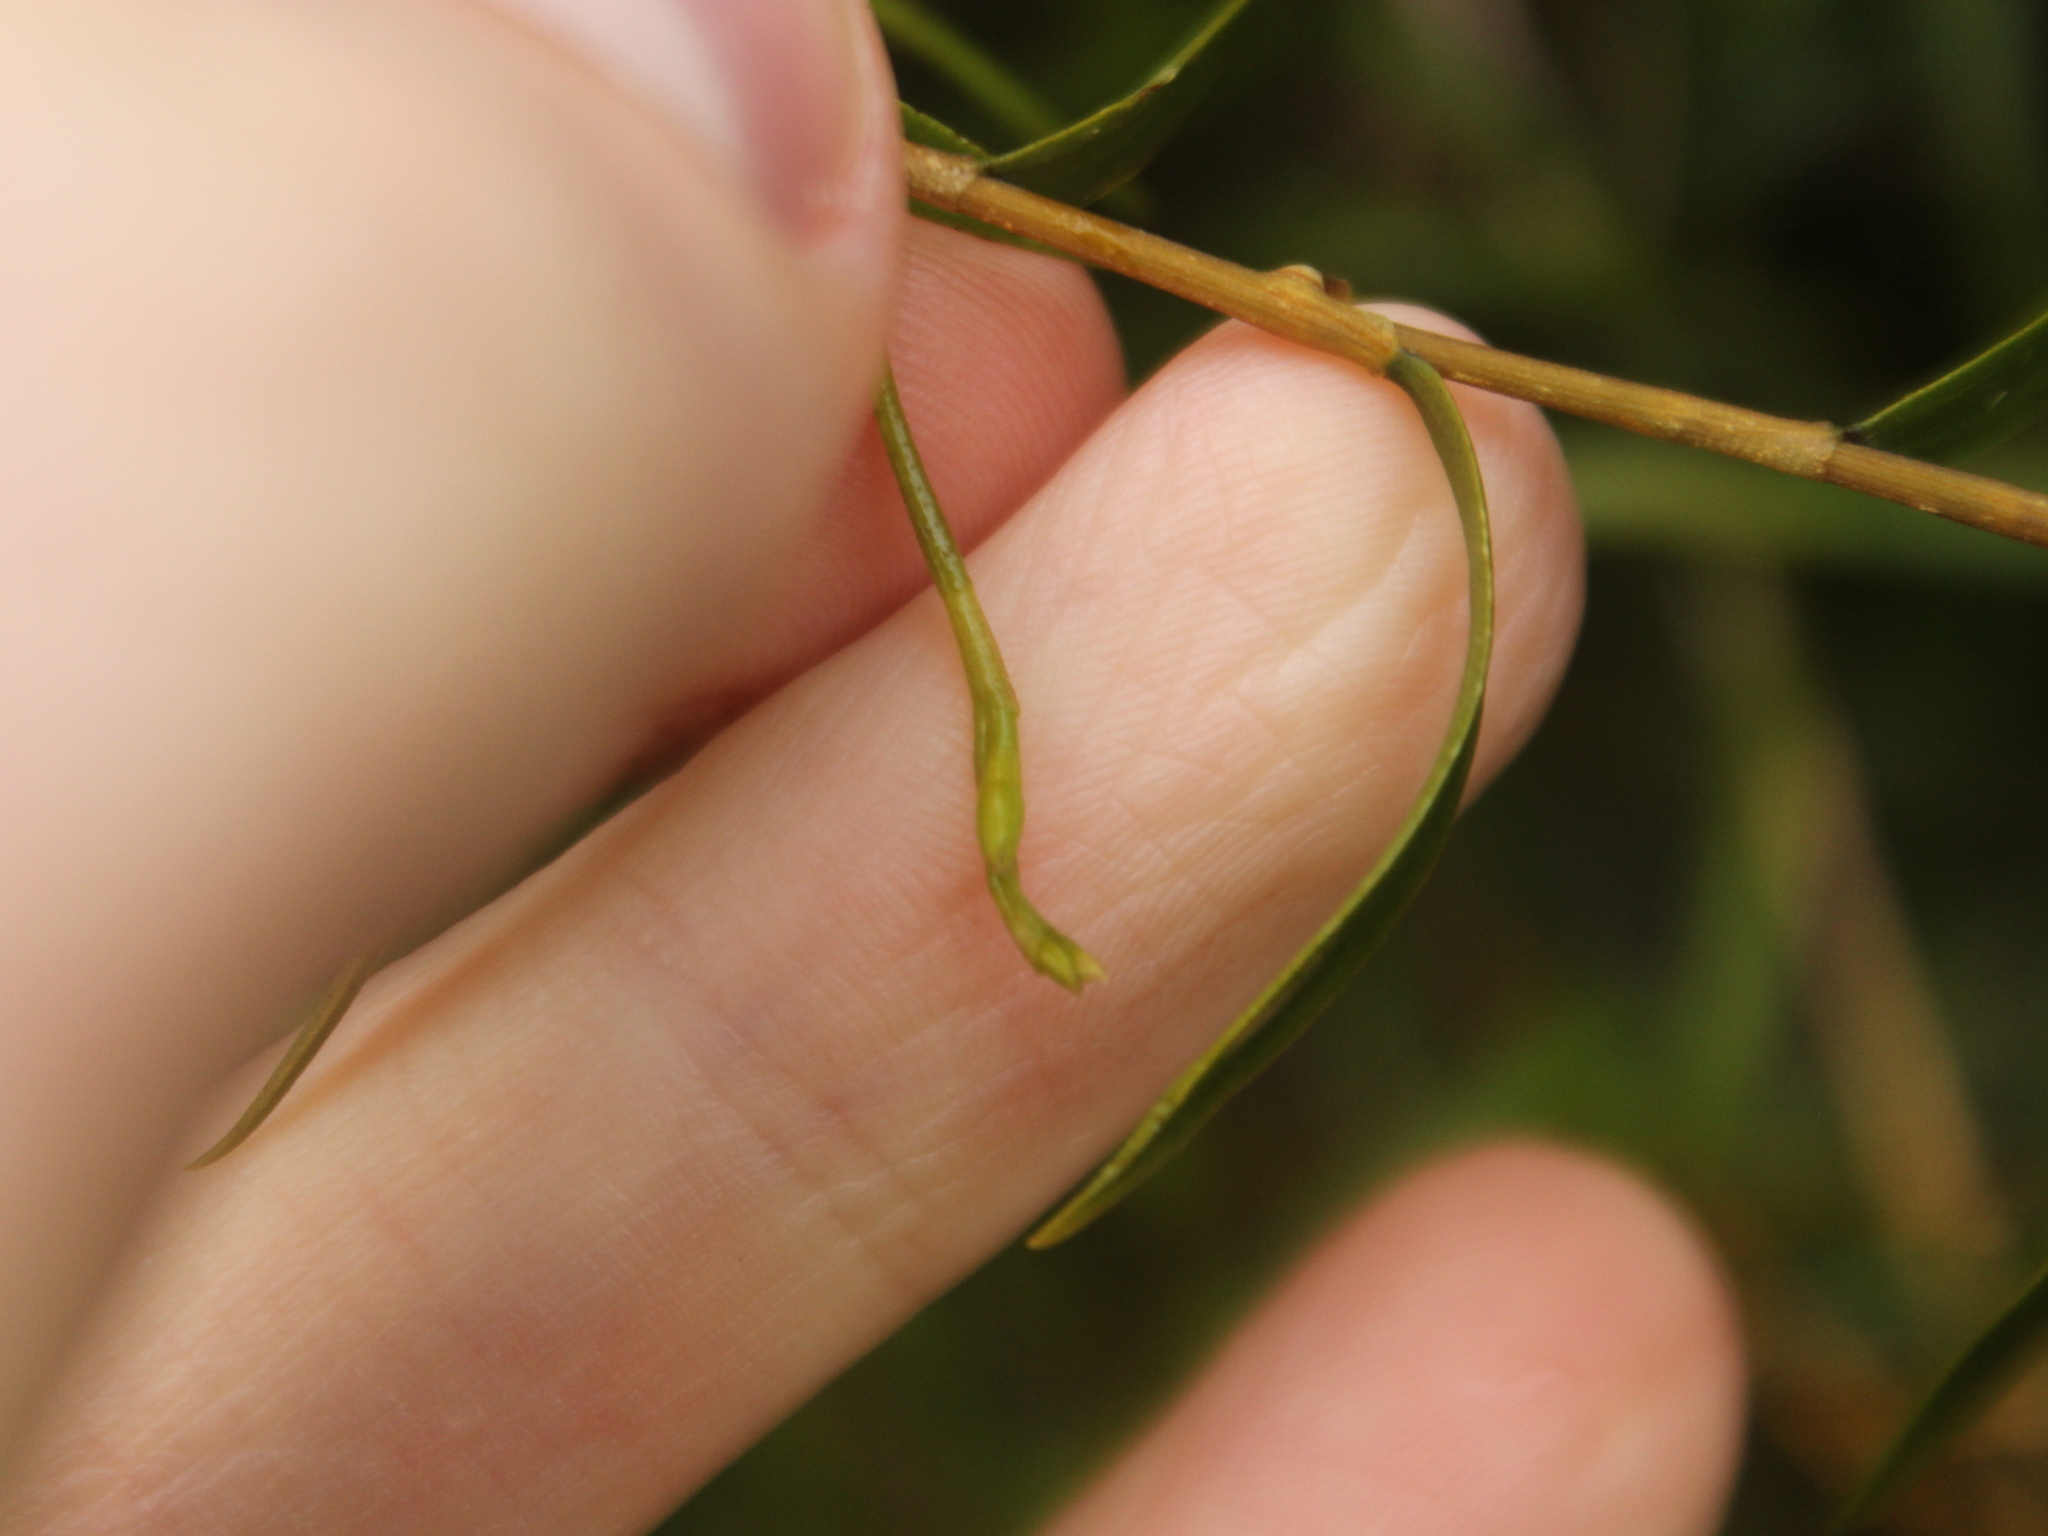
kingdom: Plantae
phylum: Tracheophyta
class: Liliopsida
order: Asparagales
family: Orchidaceae
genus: Dendrobium
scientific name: Dendrobium cunninghamii
